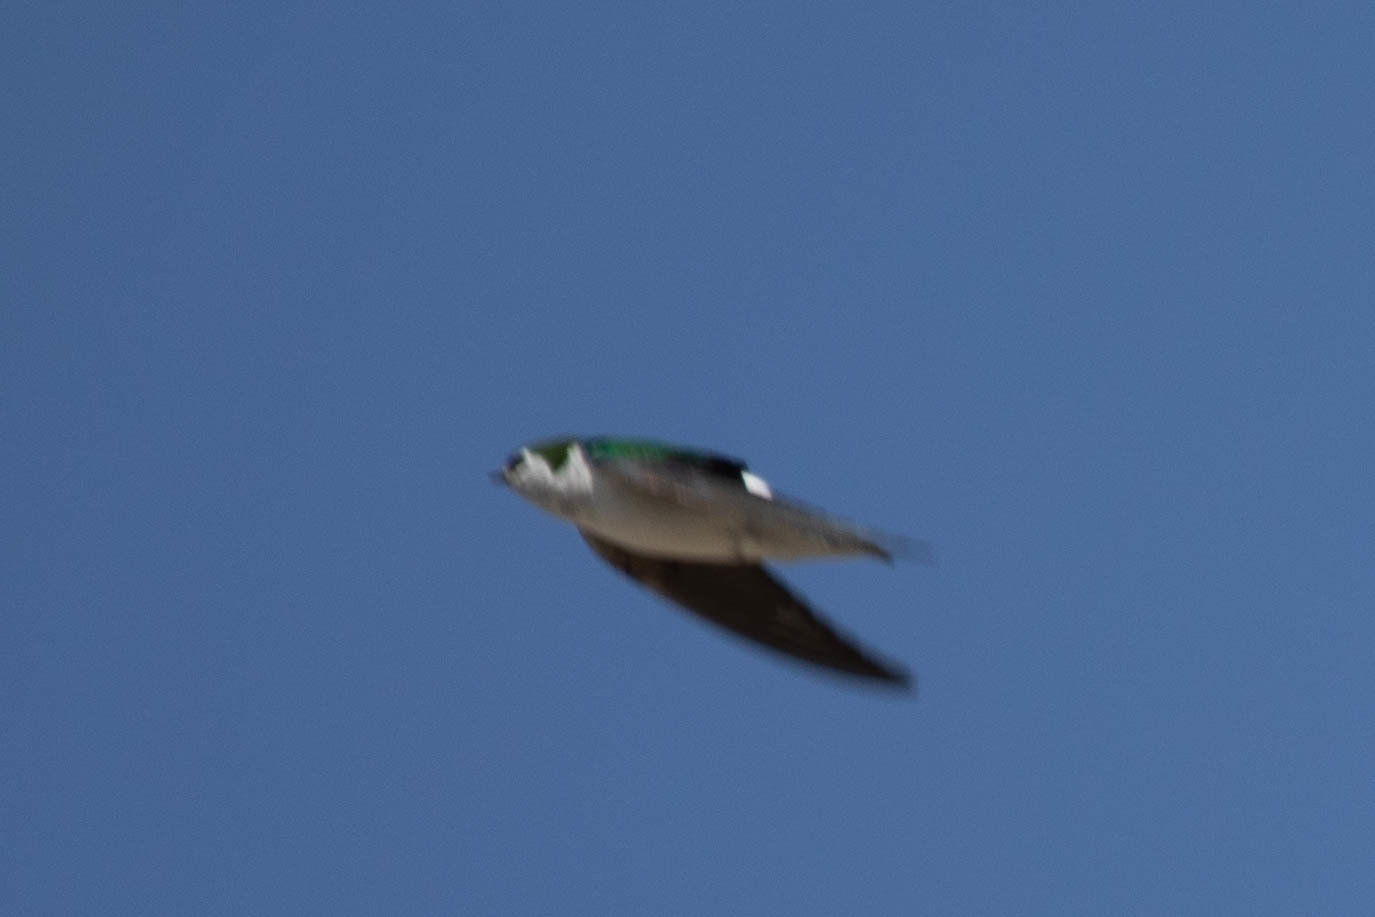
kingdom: Animalia
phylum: Chordata
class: Aves
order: Passeriformes
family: Hirundinidae
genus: Tachycineta
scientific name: Tachycineta thalassina
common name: Violet-green swallow
